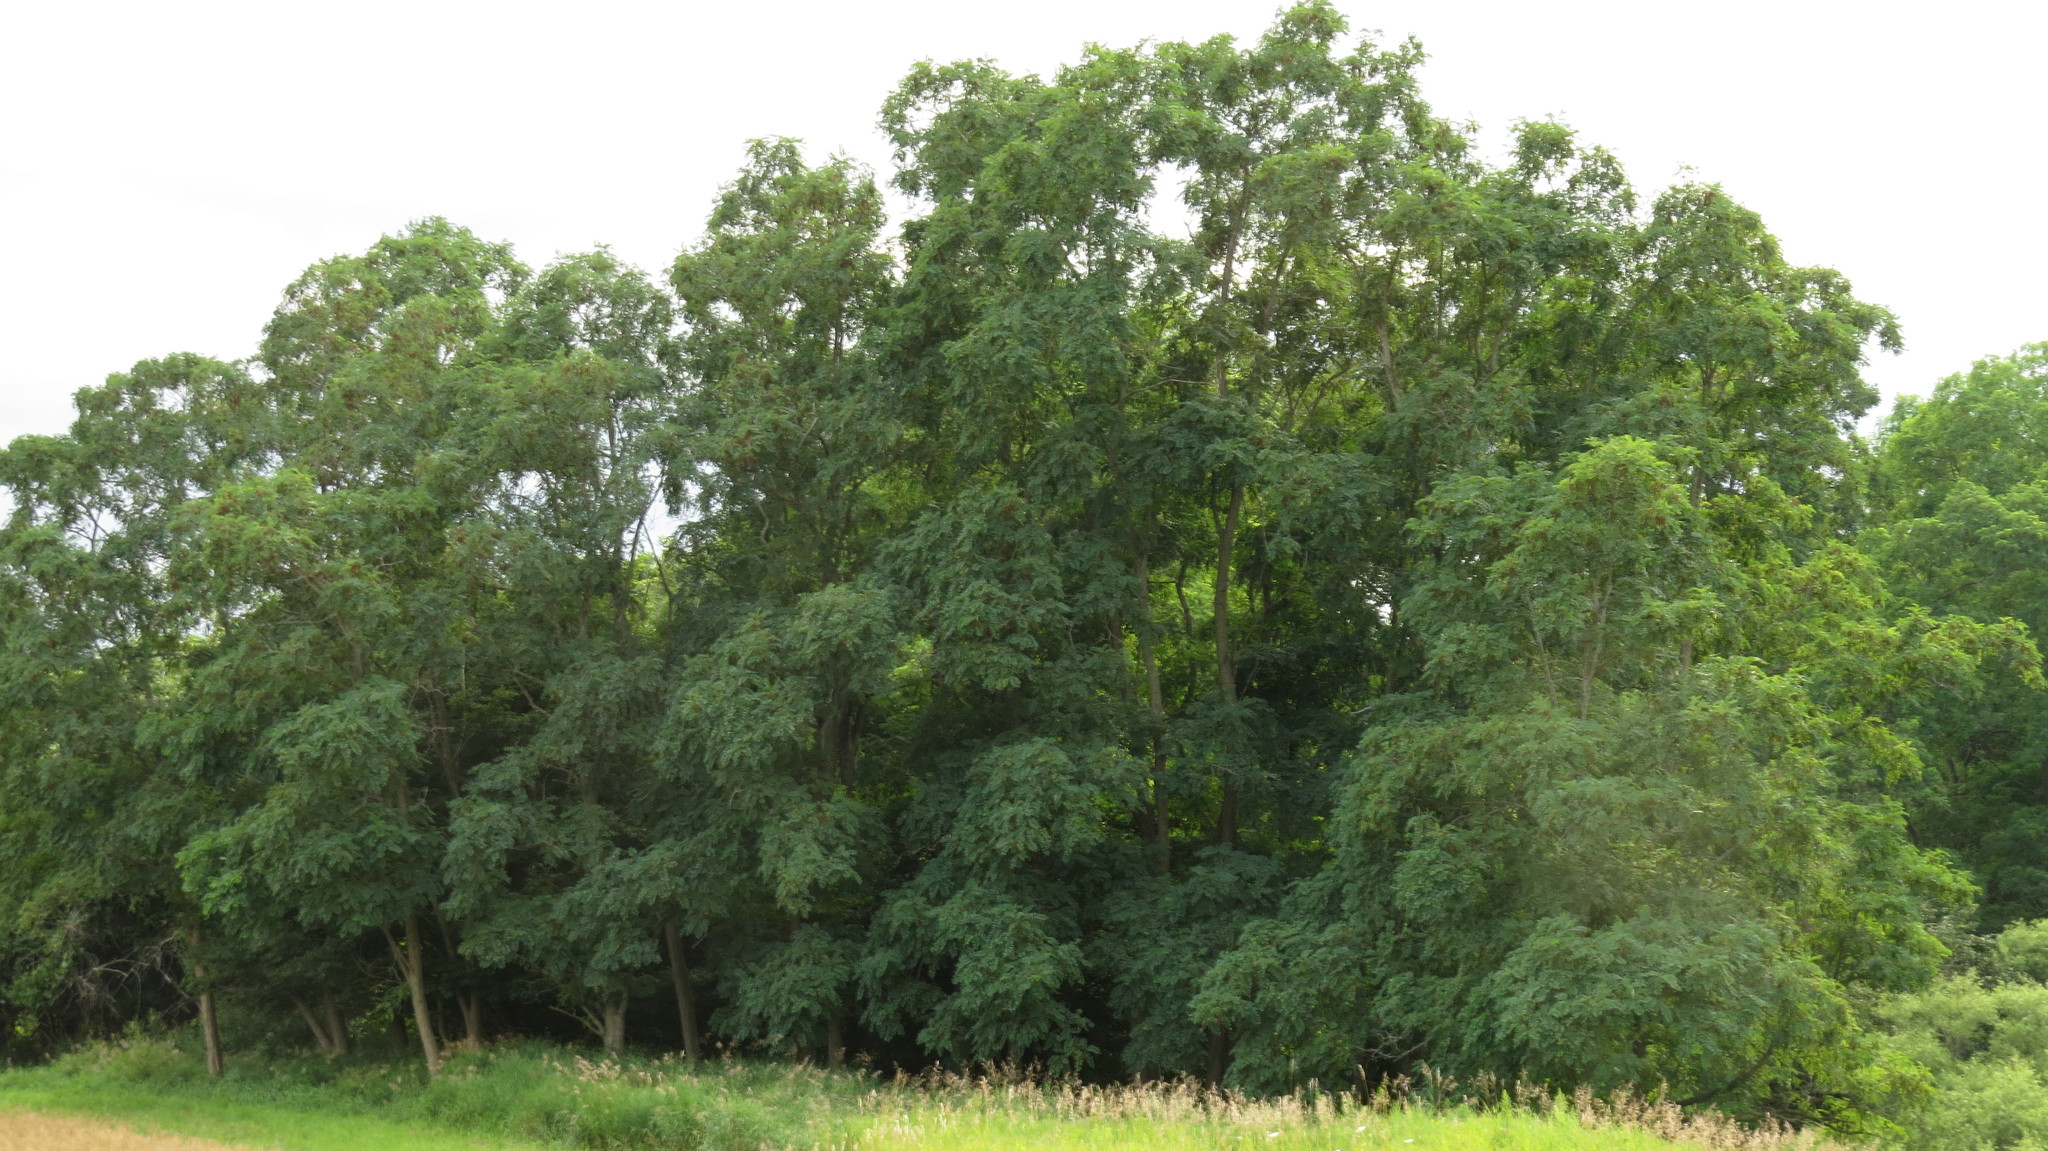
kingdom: Plantae
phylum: Tracheophyta
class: Magnoliopsida
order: Fabales
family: Fabaceae
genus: Robinia
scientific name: Robinia pseudoacacia
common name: Black locust
